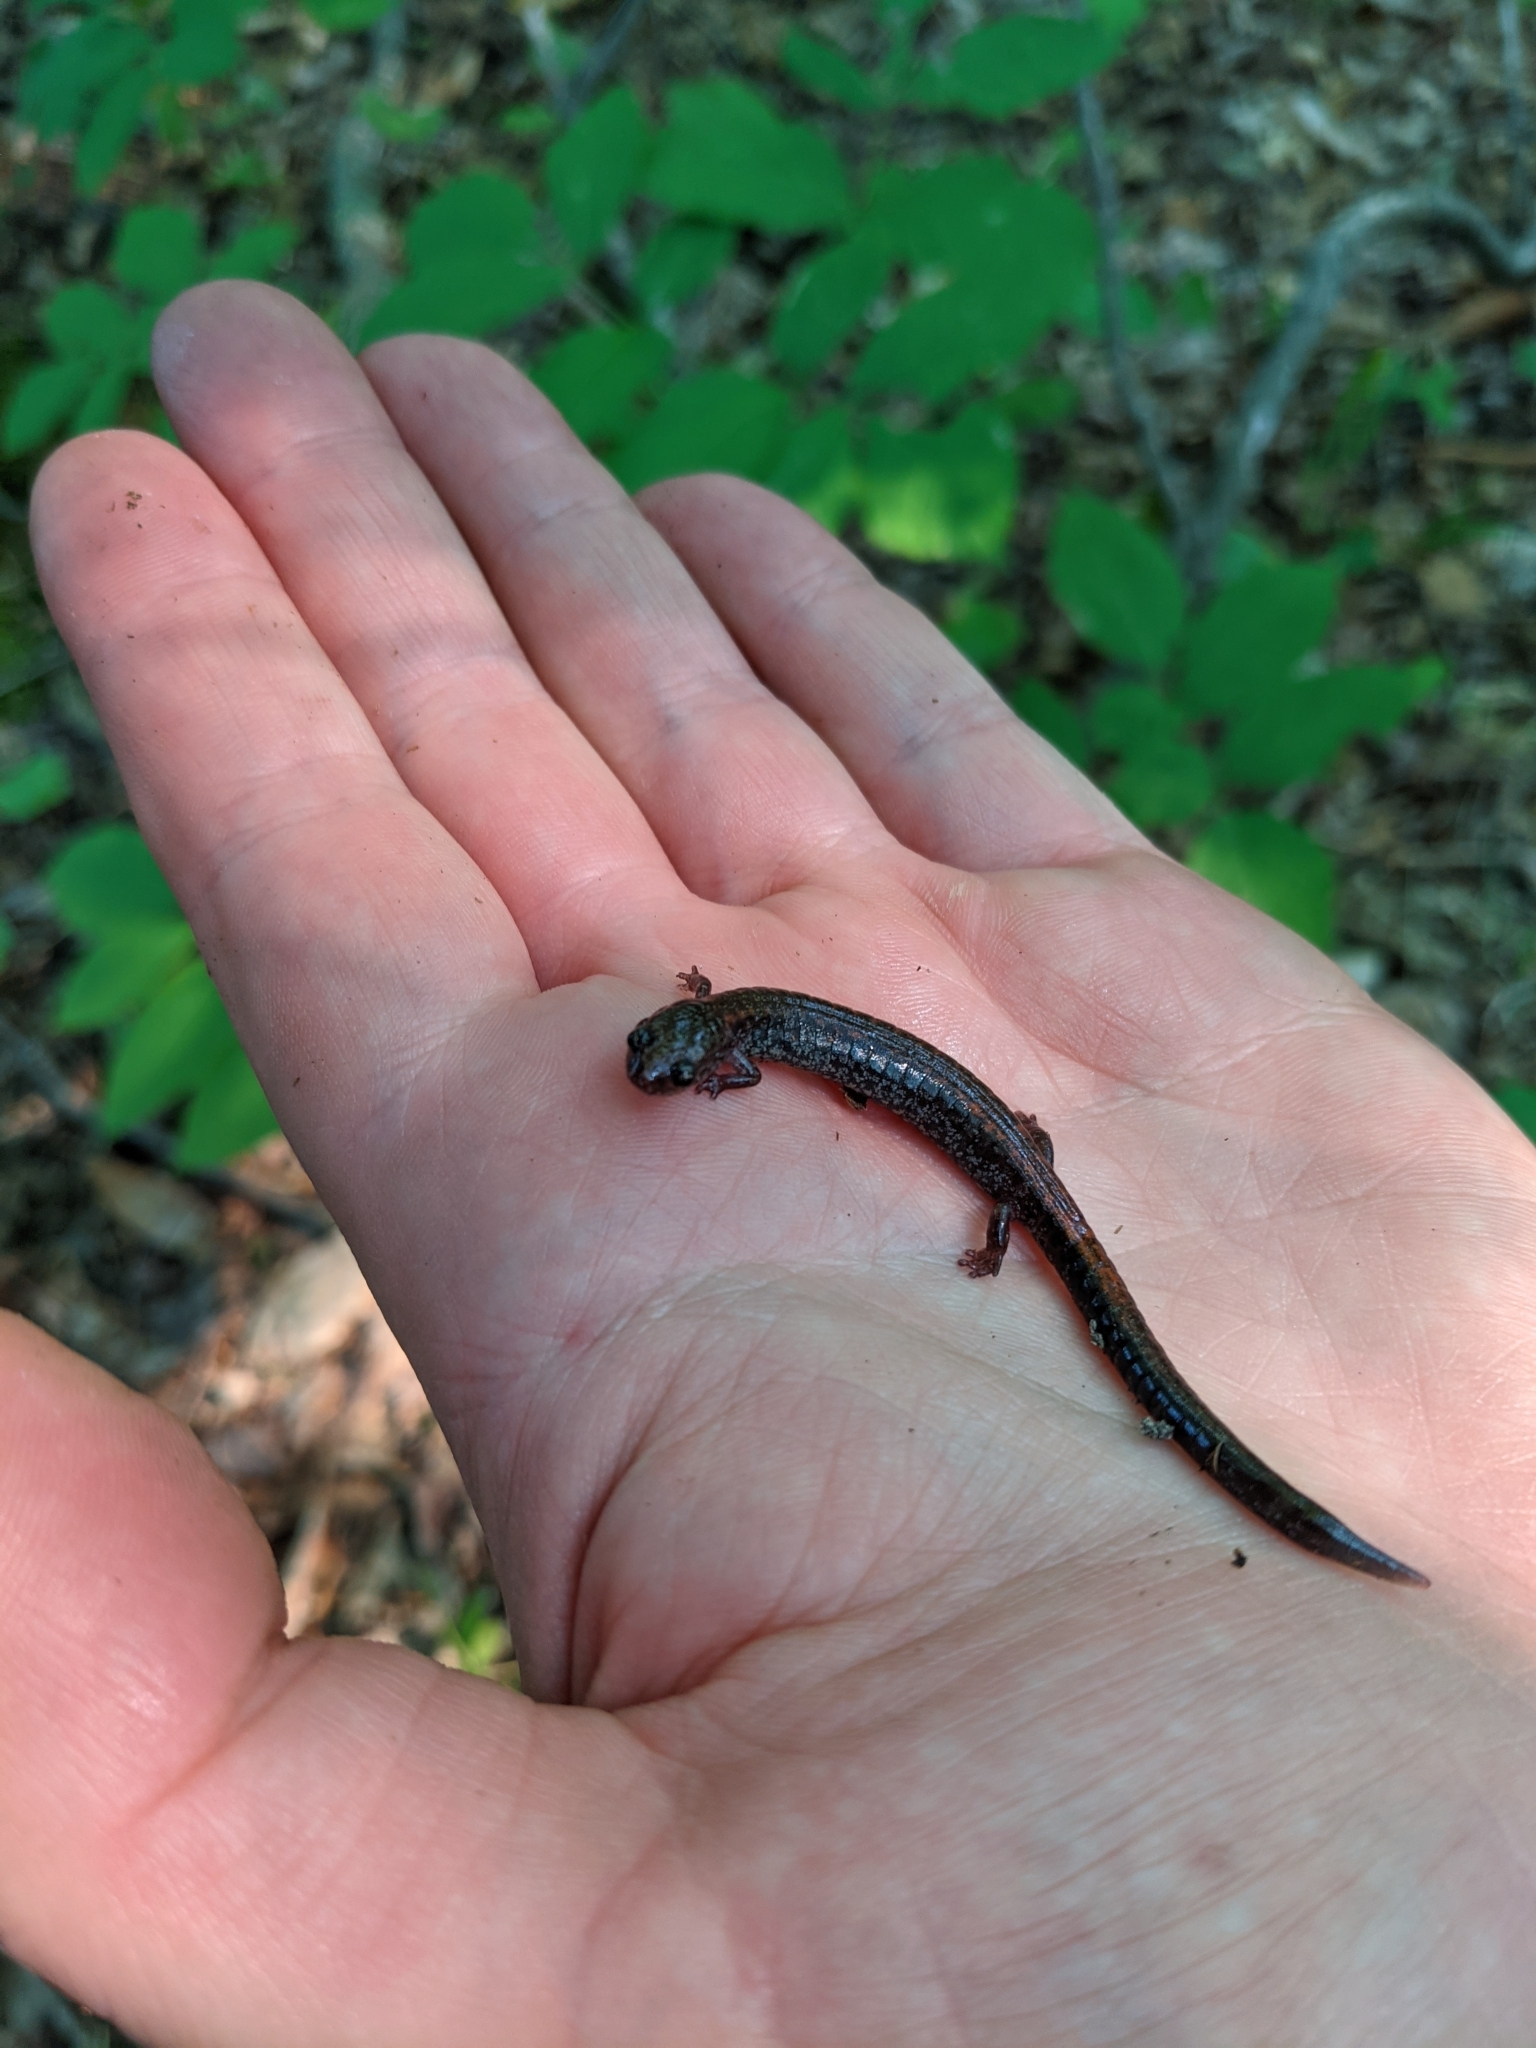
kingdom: Animalia
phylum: Chordata
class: Amphibia
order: Caudata
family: Plethodontidae
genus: Plethodon
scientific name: Plethodon cinereus
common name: Redback salamander
